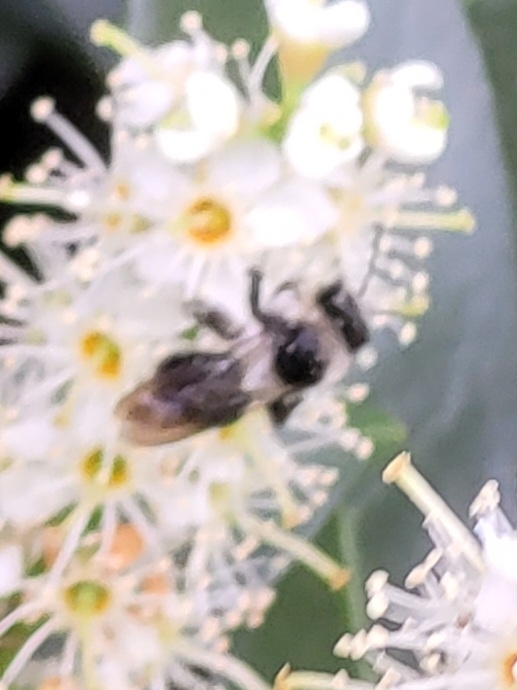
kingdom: Animalia
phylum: Arthropoda
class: Insecta
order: Hymenoptera
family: Andrenidae
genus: Andrena
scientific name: Andrena cineraria
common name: Ashy mining bee
